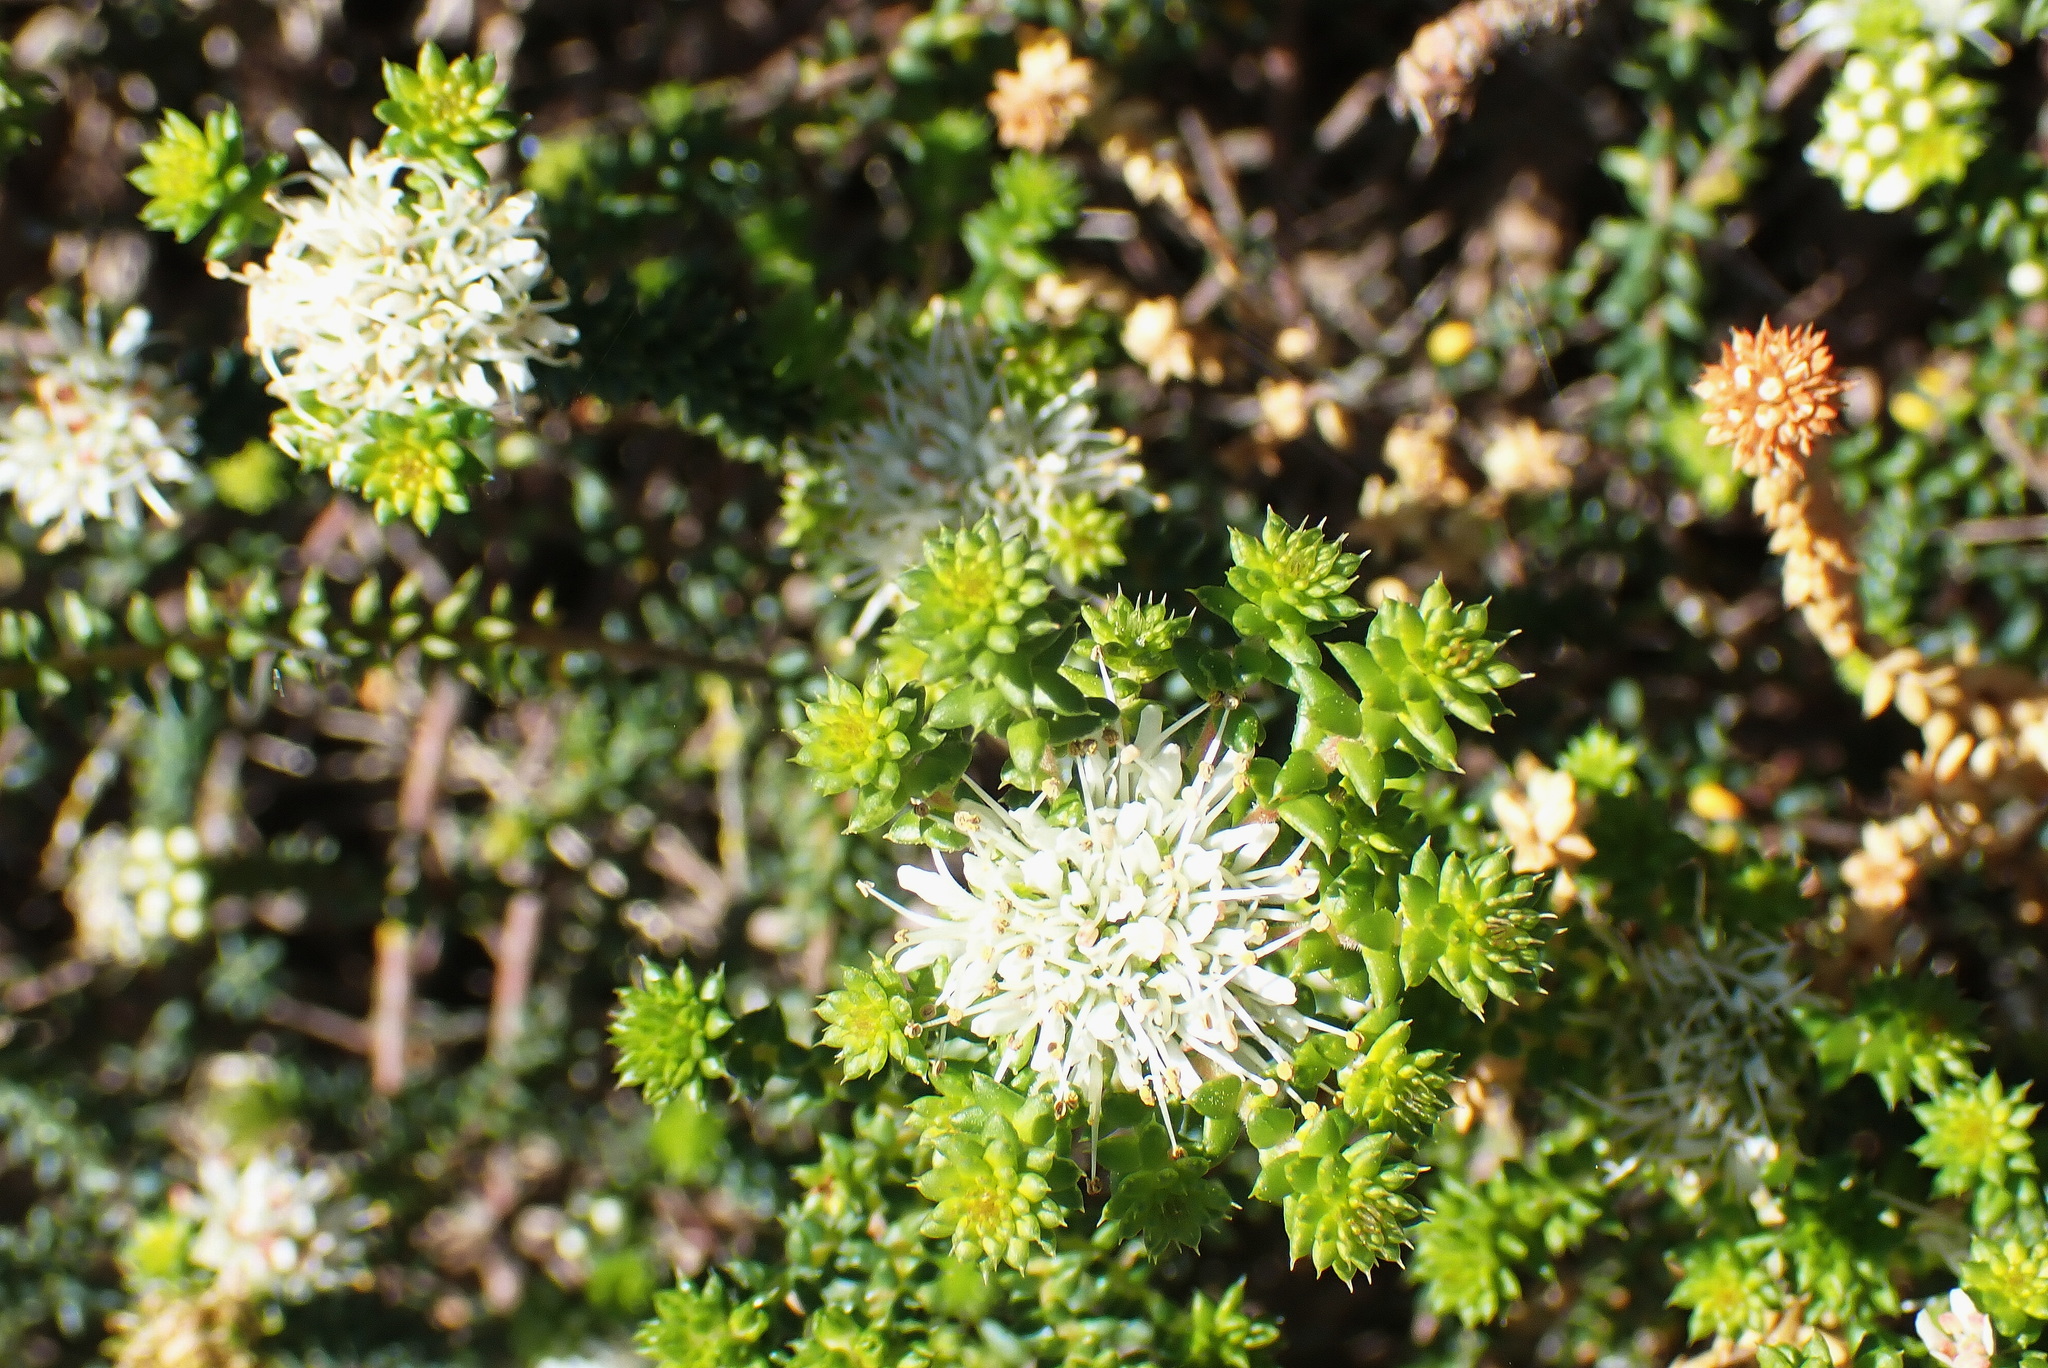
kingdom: Plantae
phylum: Tracheophyta
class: Magnoliopsida
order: Sapindales
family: Rutaceae
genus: Agathosma
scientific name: Agathosma apiculata
